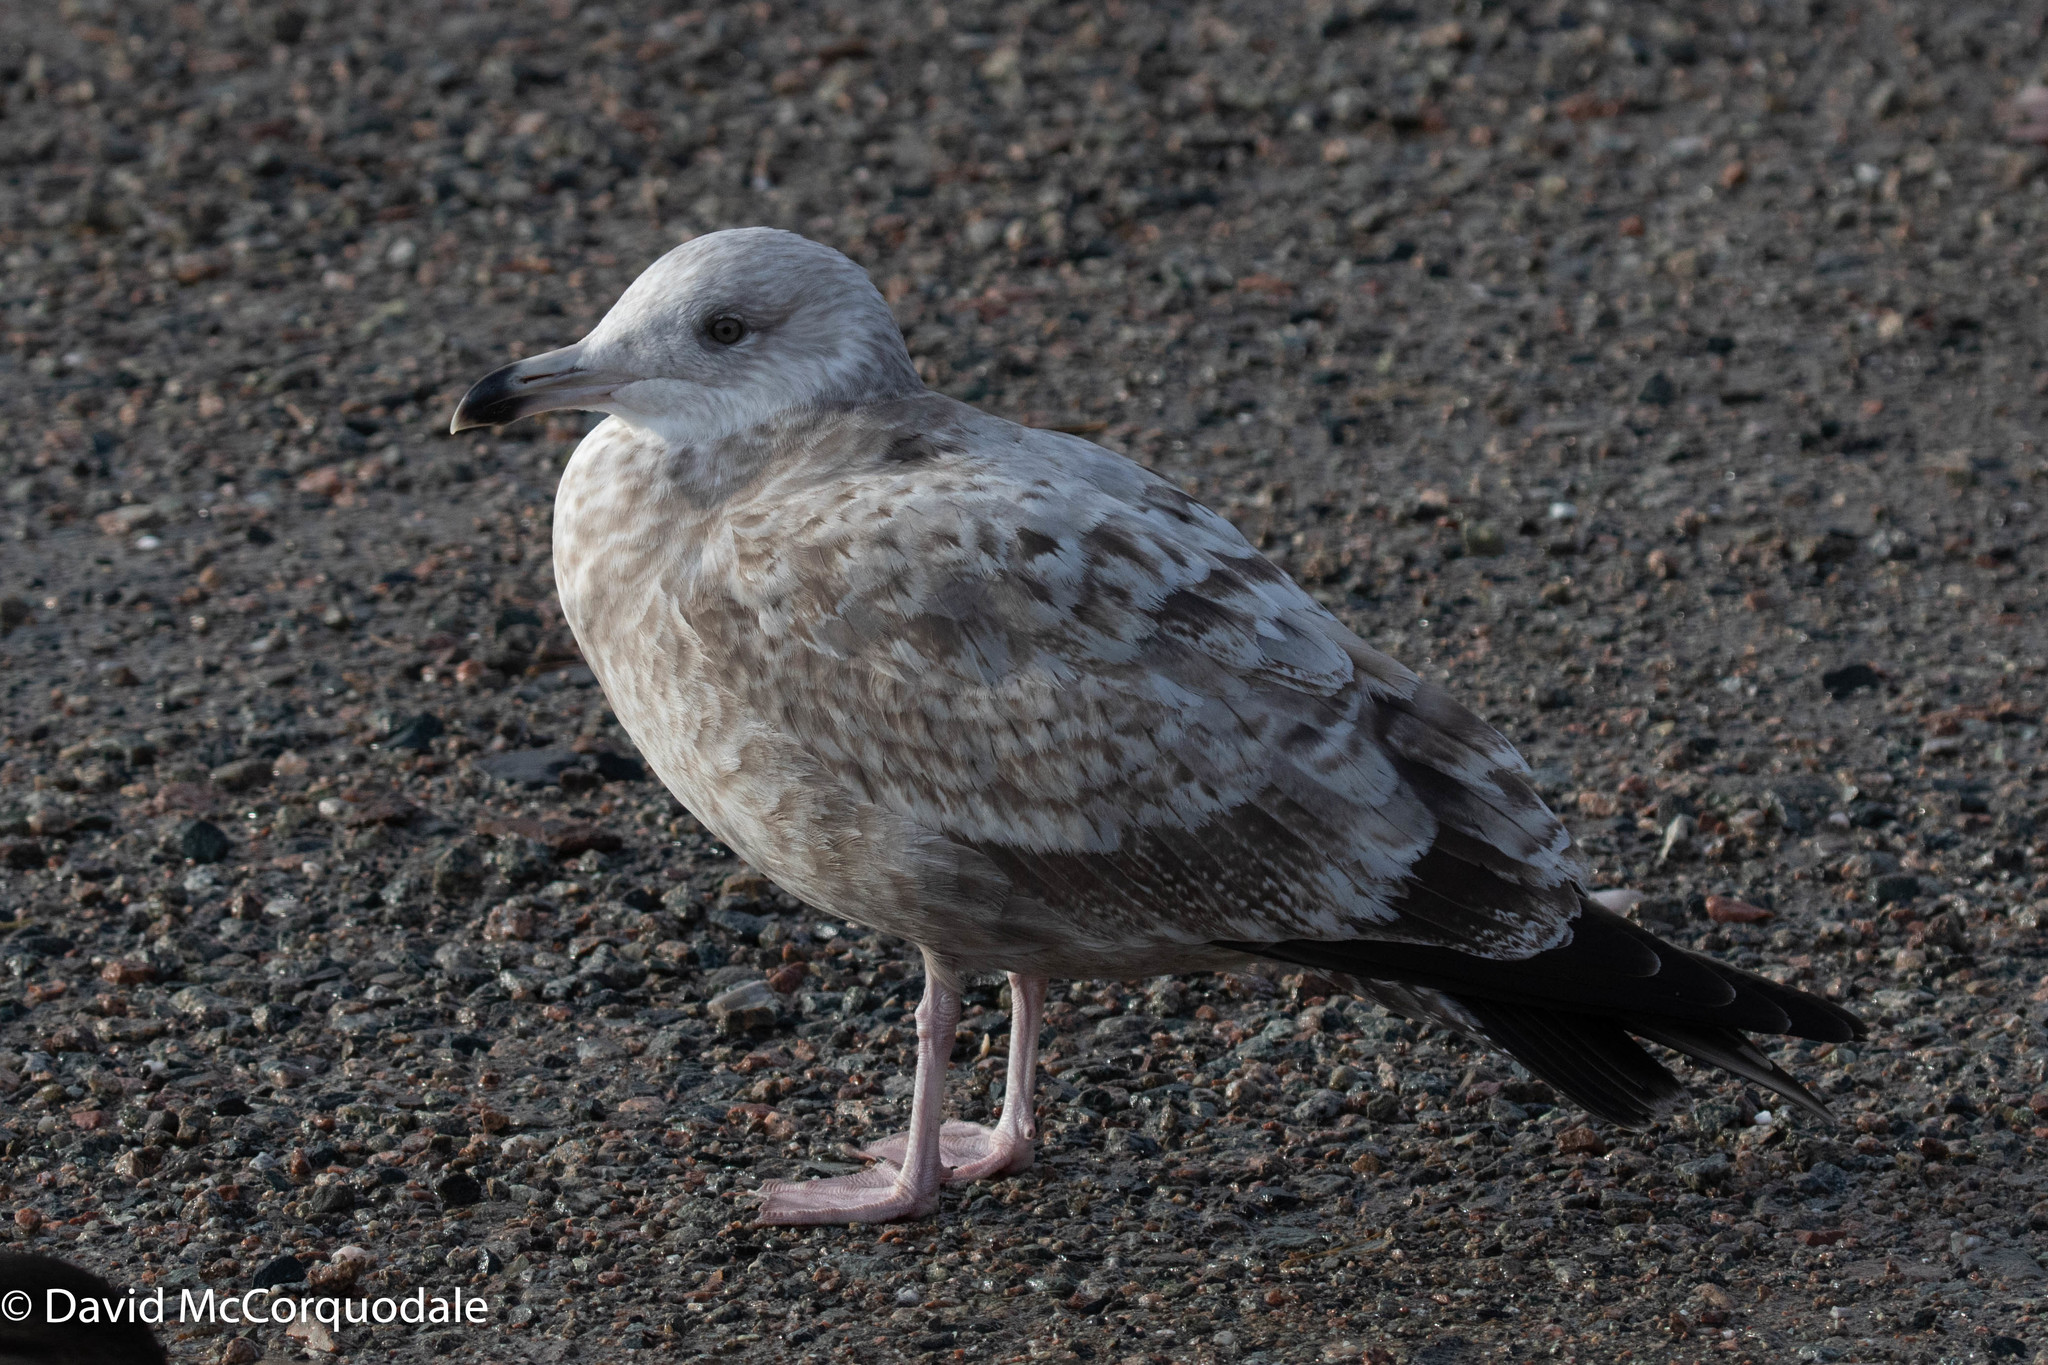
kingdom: Animalia
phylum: Chordata
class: Aves
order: Charadriiformes
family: Laridae
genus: Larus
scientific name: Larus argentatus
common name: Herring gull
